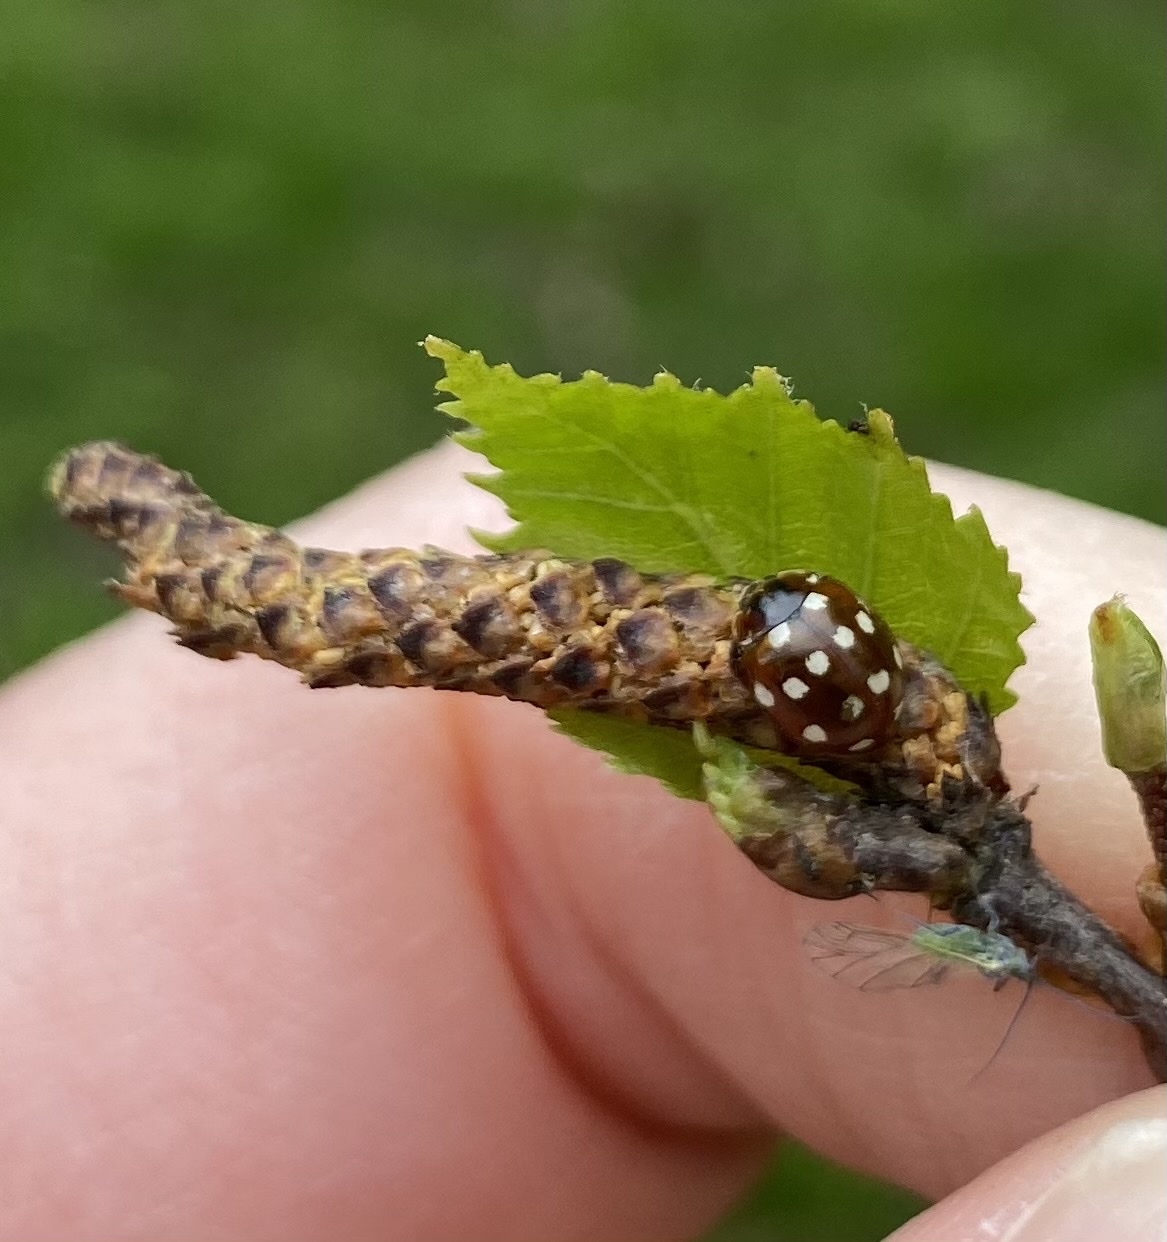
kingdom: Animalia
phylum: Arthropoda
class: Insecta
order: Coleoptera
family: Coccinellidae
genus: Calvia
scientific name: Calvia quatuordecimguttata
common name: Cream-spot ladybird
